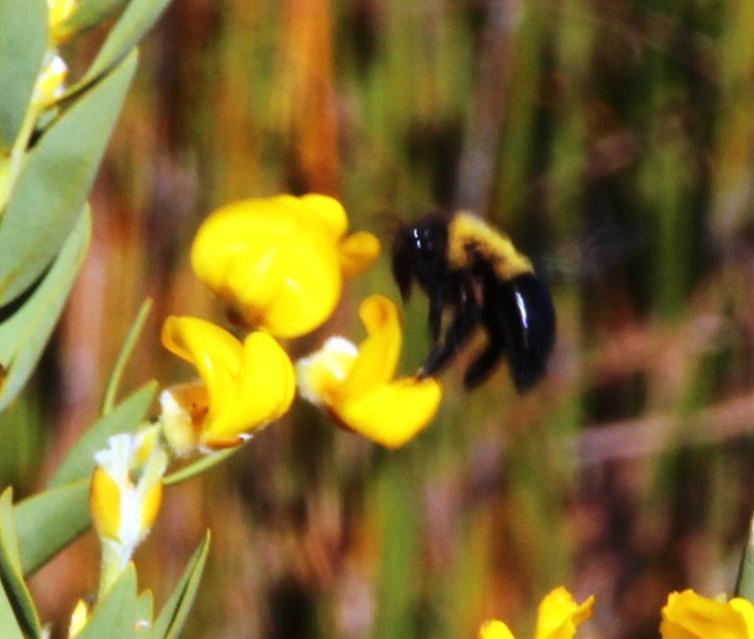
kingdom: Animalia
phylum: Arthropoda
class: Insecta
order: Hymenoptera
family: Apidae
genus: Xylocopa
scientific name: Xylocopa watmoughi
